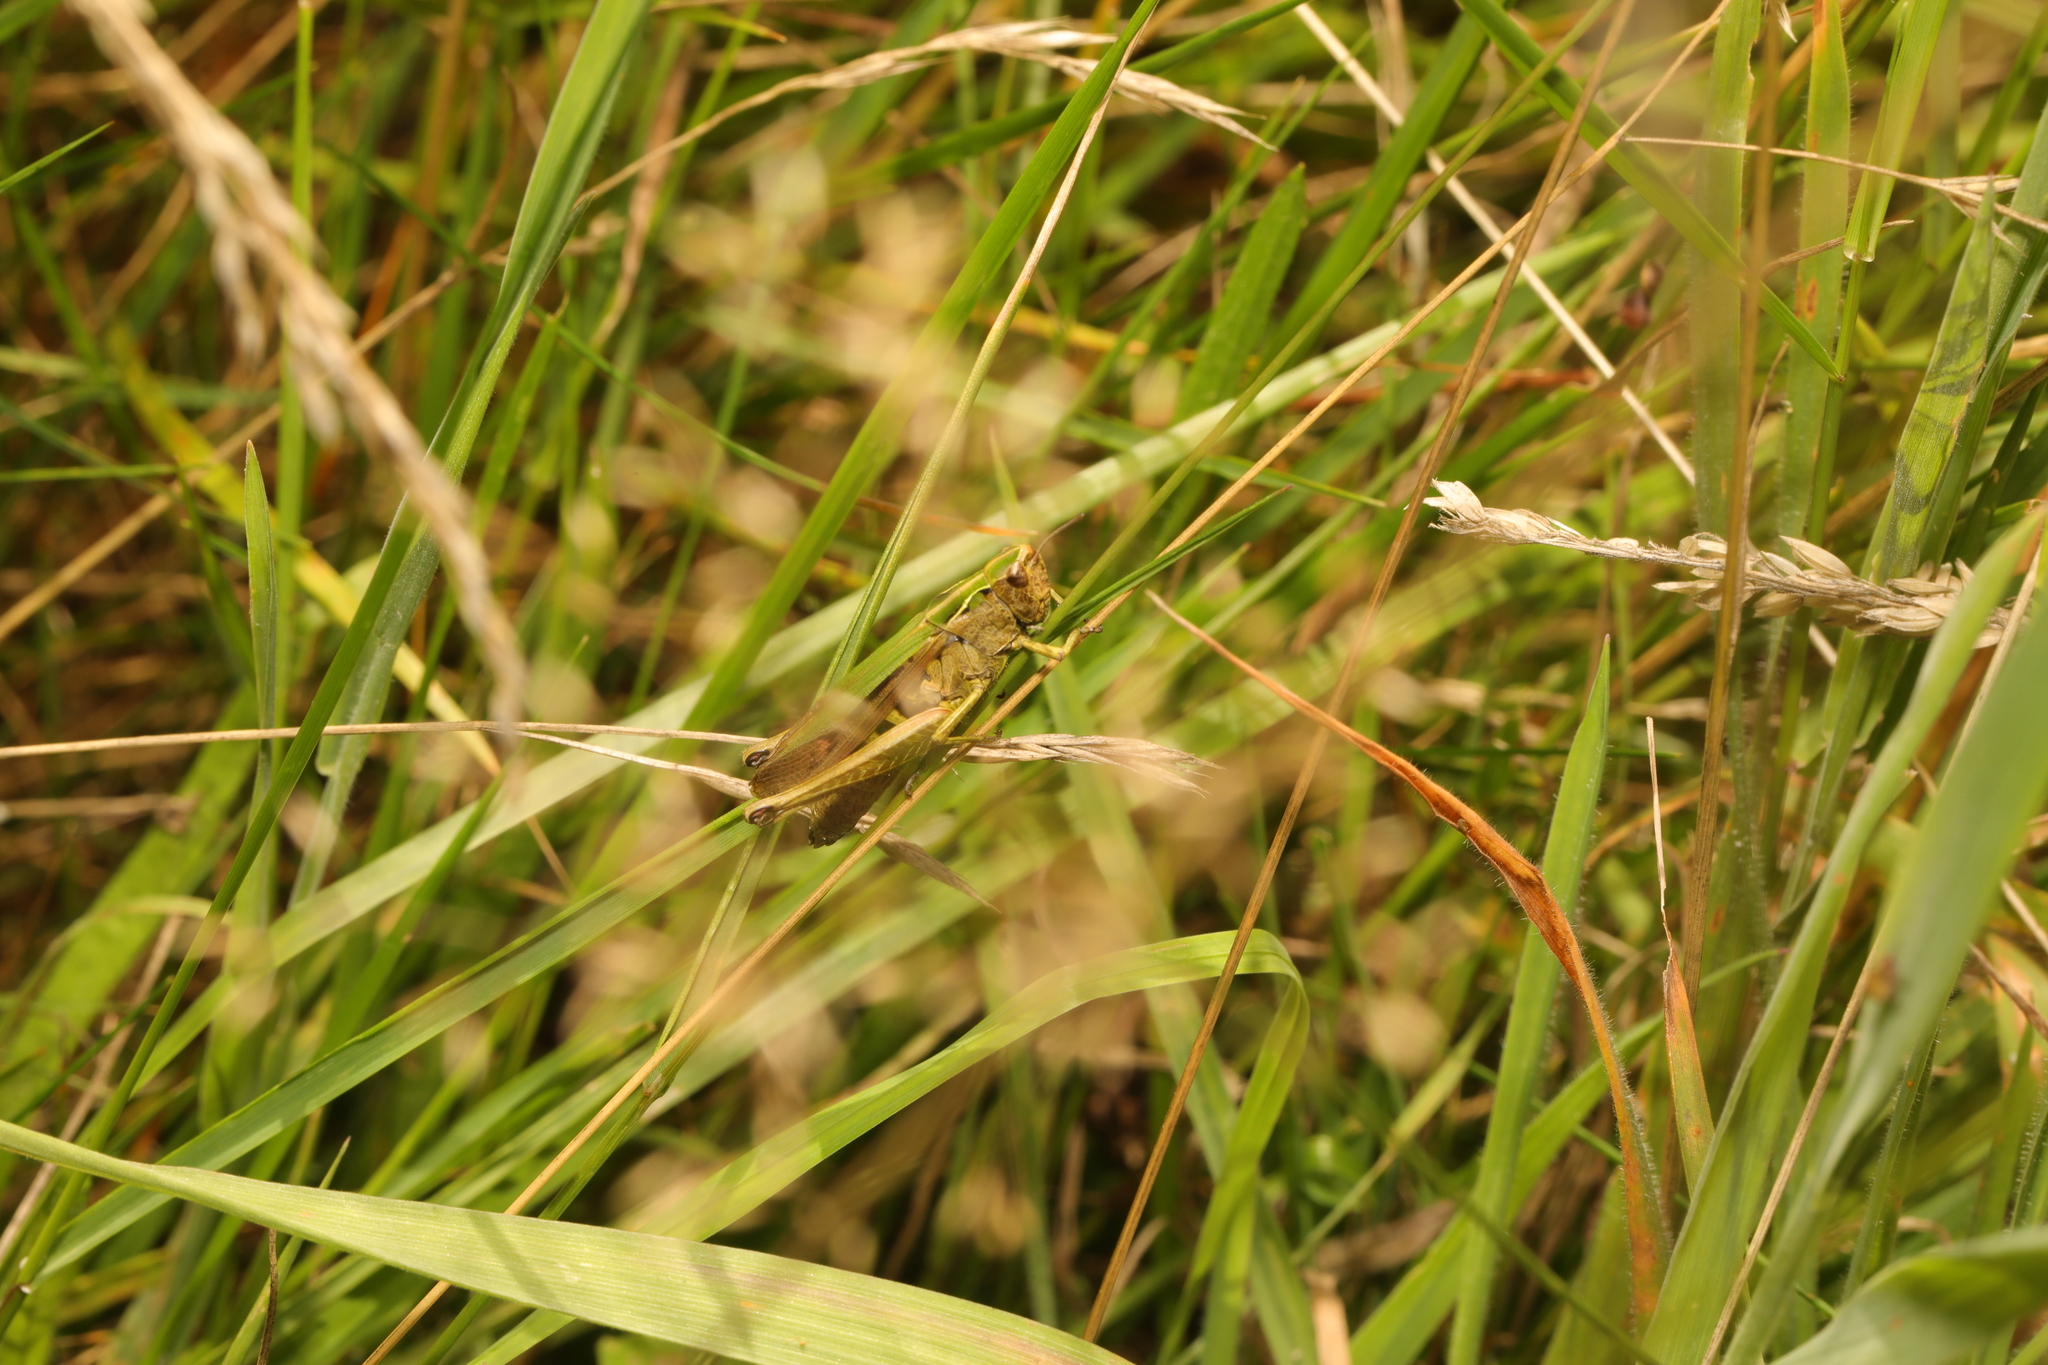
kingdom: Animalia
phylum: Arthropoda
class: Insecta
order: Orthoptera
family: Acrididae
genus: Omocestus
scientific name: Omocestus viridulus
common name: Common green grasshopper
